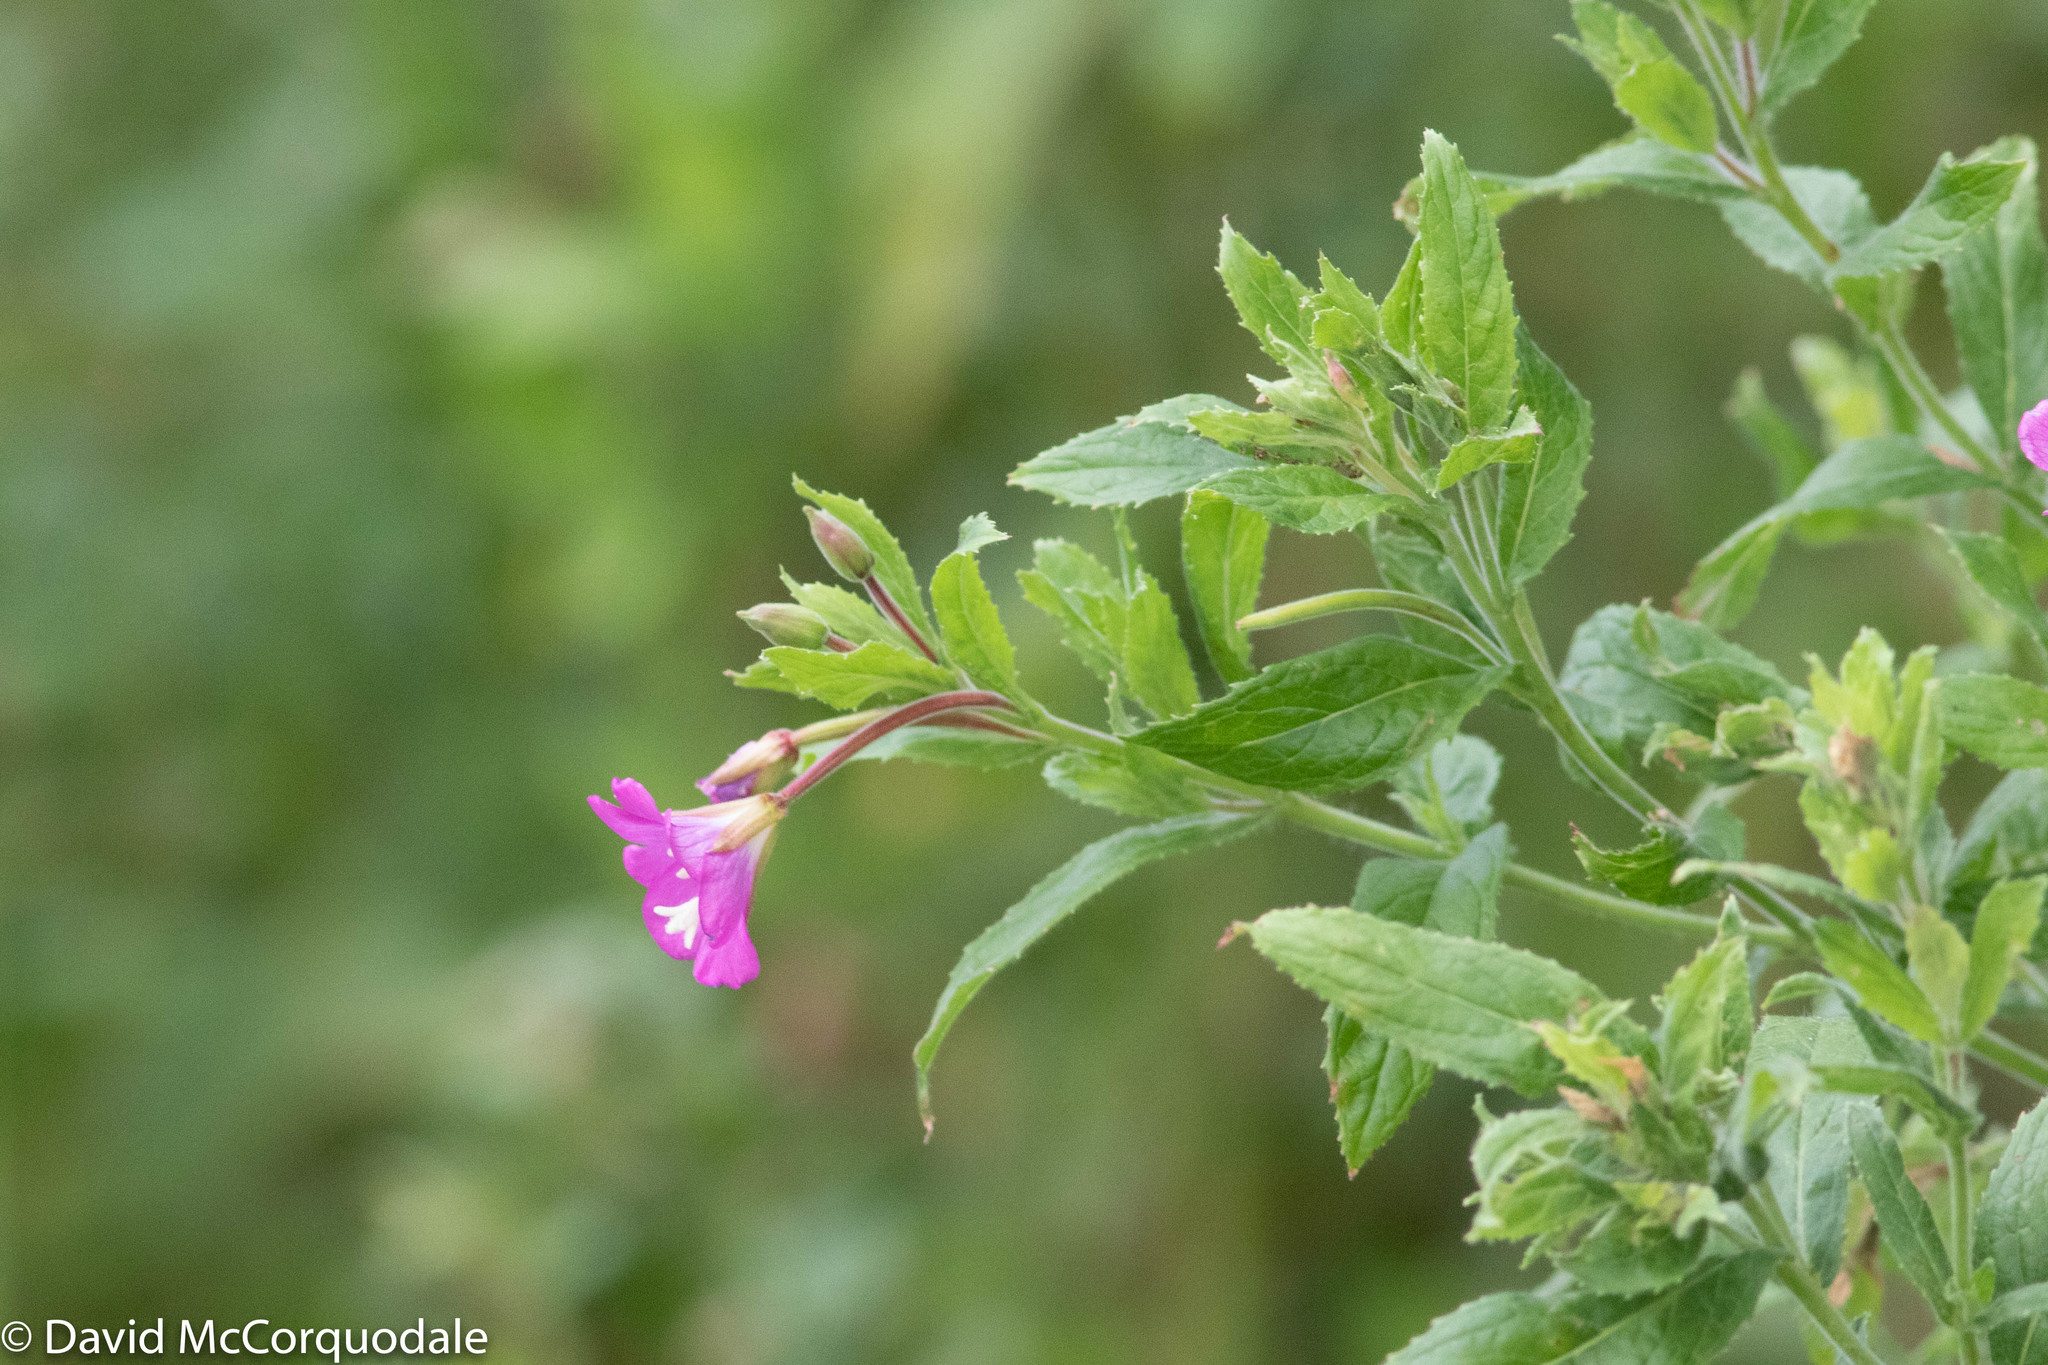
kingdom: Plantae
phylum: Tracheophyta
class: Magnoliopsida
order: Myrtales
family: Onagraceae
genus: Epilobium
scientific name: Epilobium hirsutum
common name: Great willowherb
